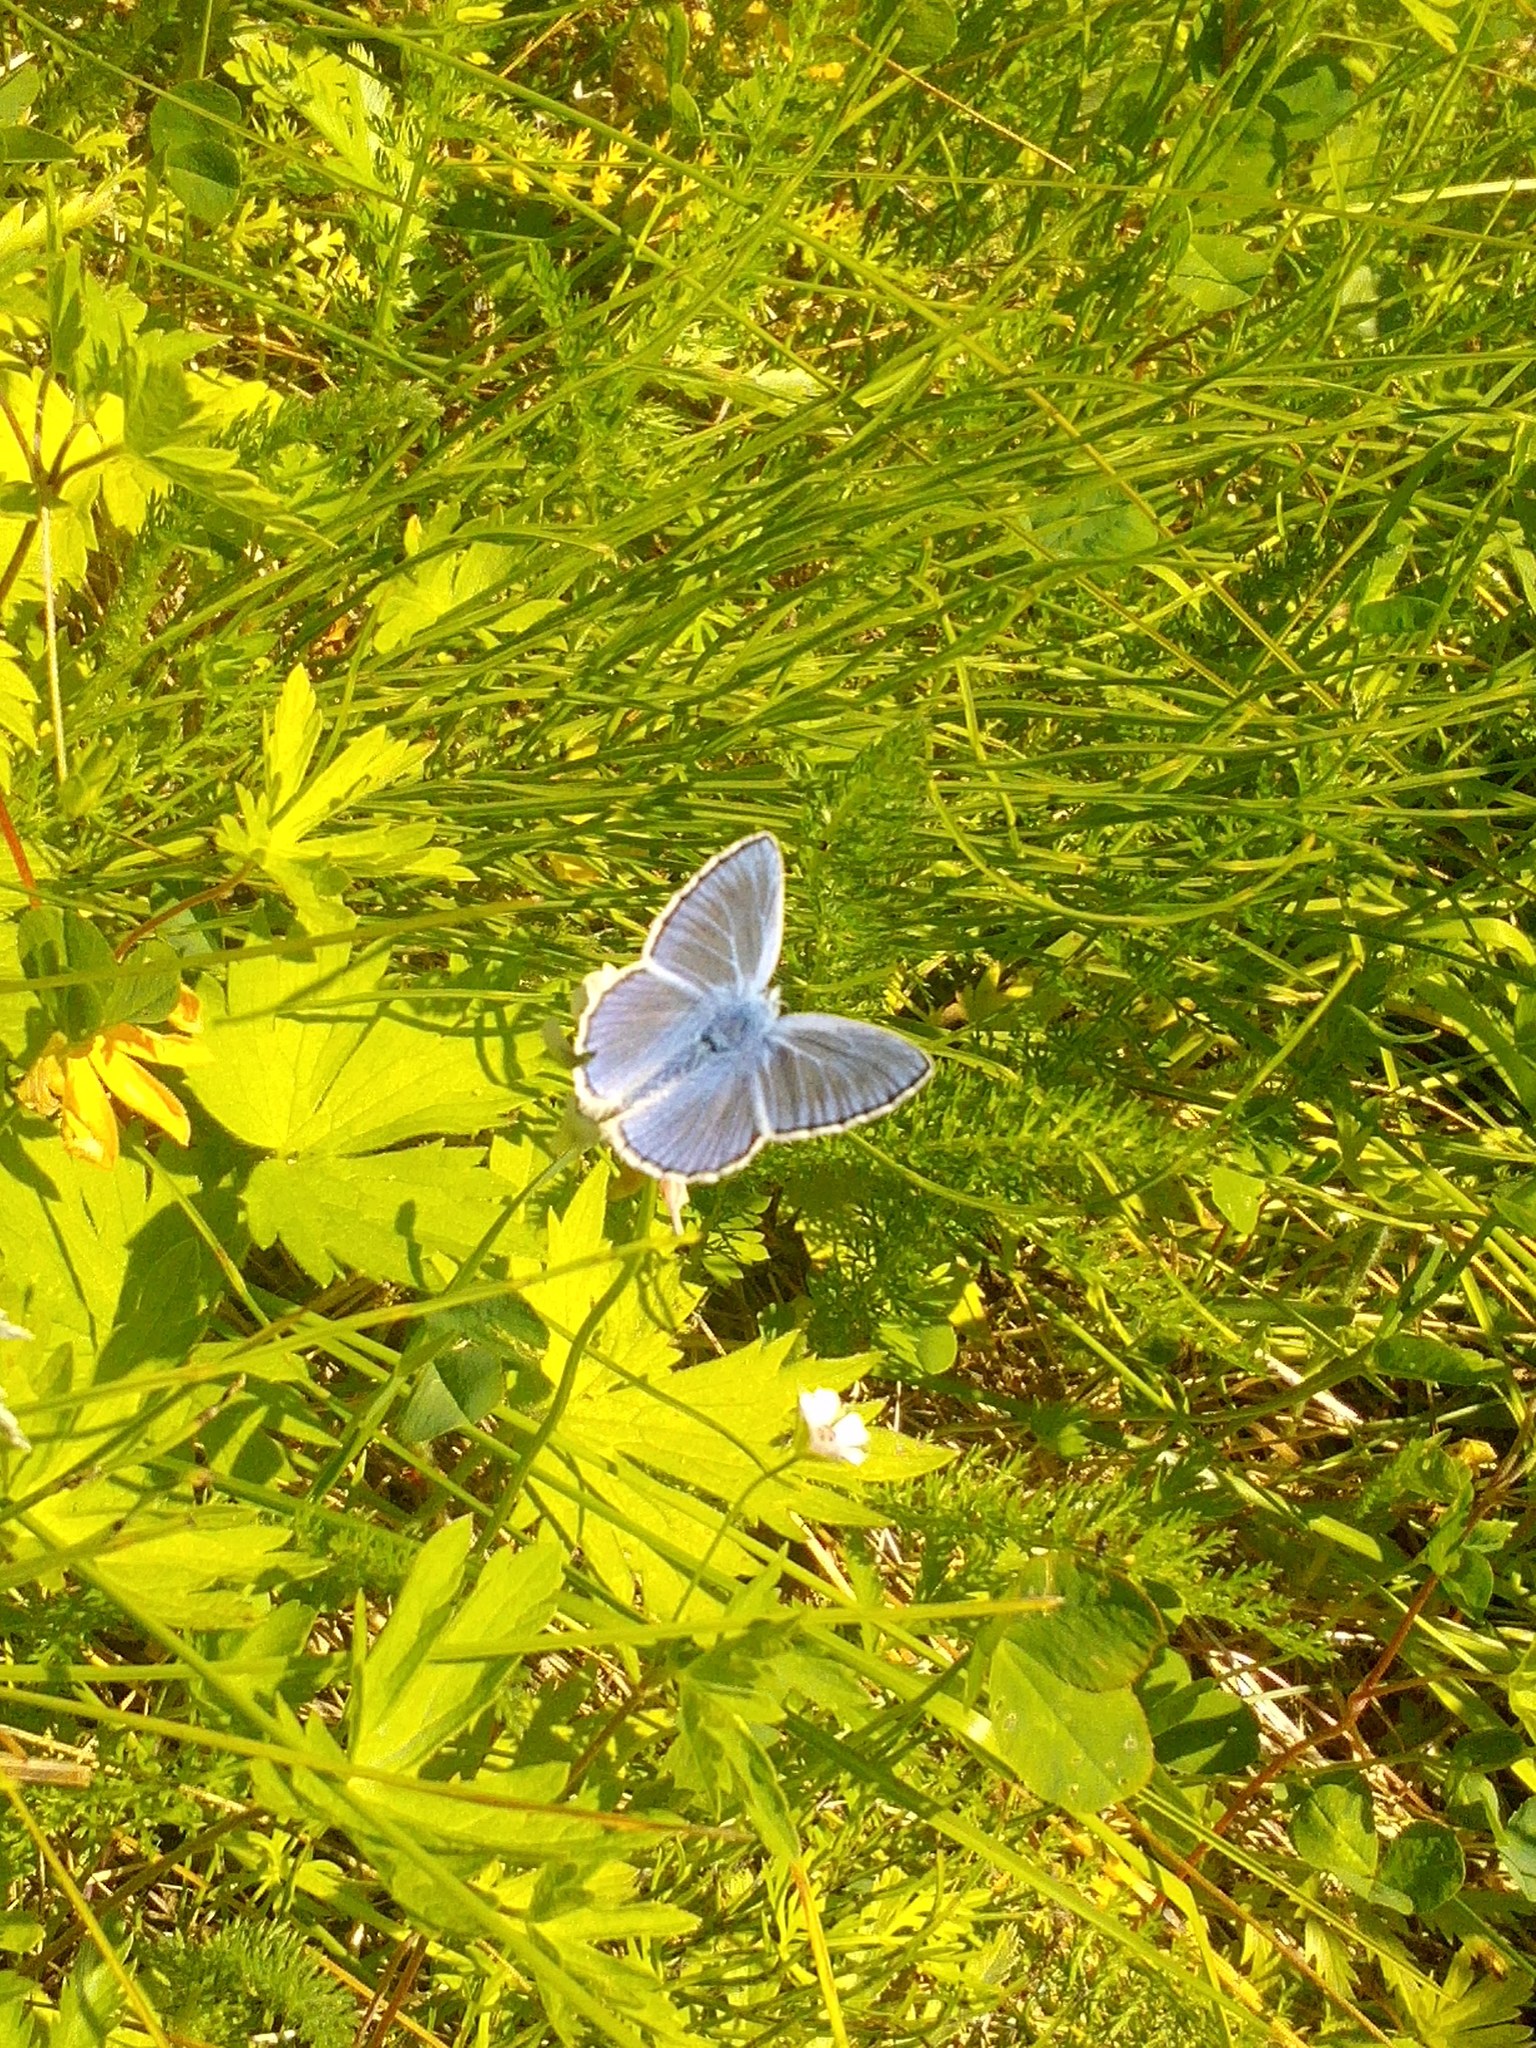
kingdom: Animalia
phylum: Arthropoda
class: Insecta
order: Lepidoptera
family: Lycaenidae
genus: Polyommatus
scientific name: Polyommatus icarus
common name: Common blue
